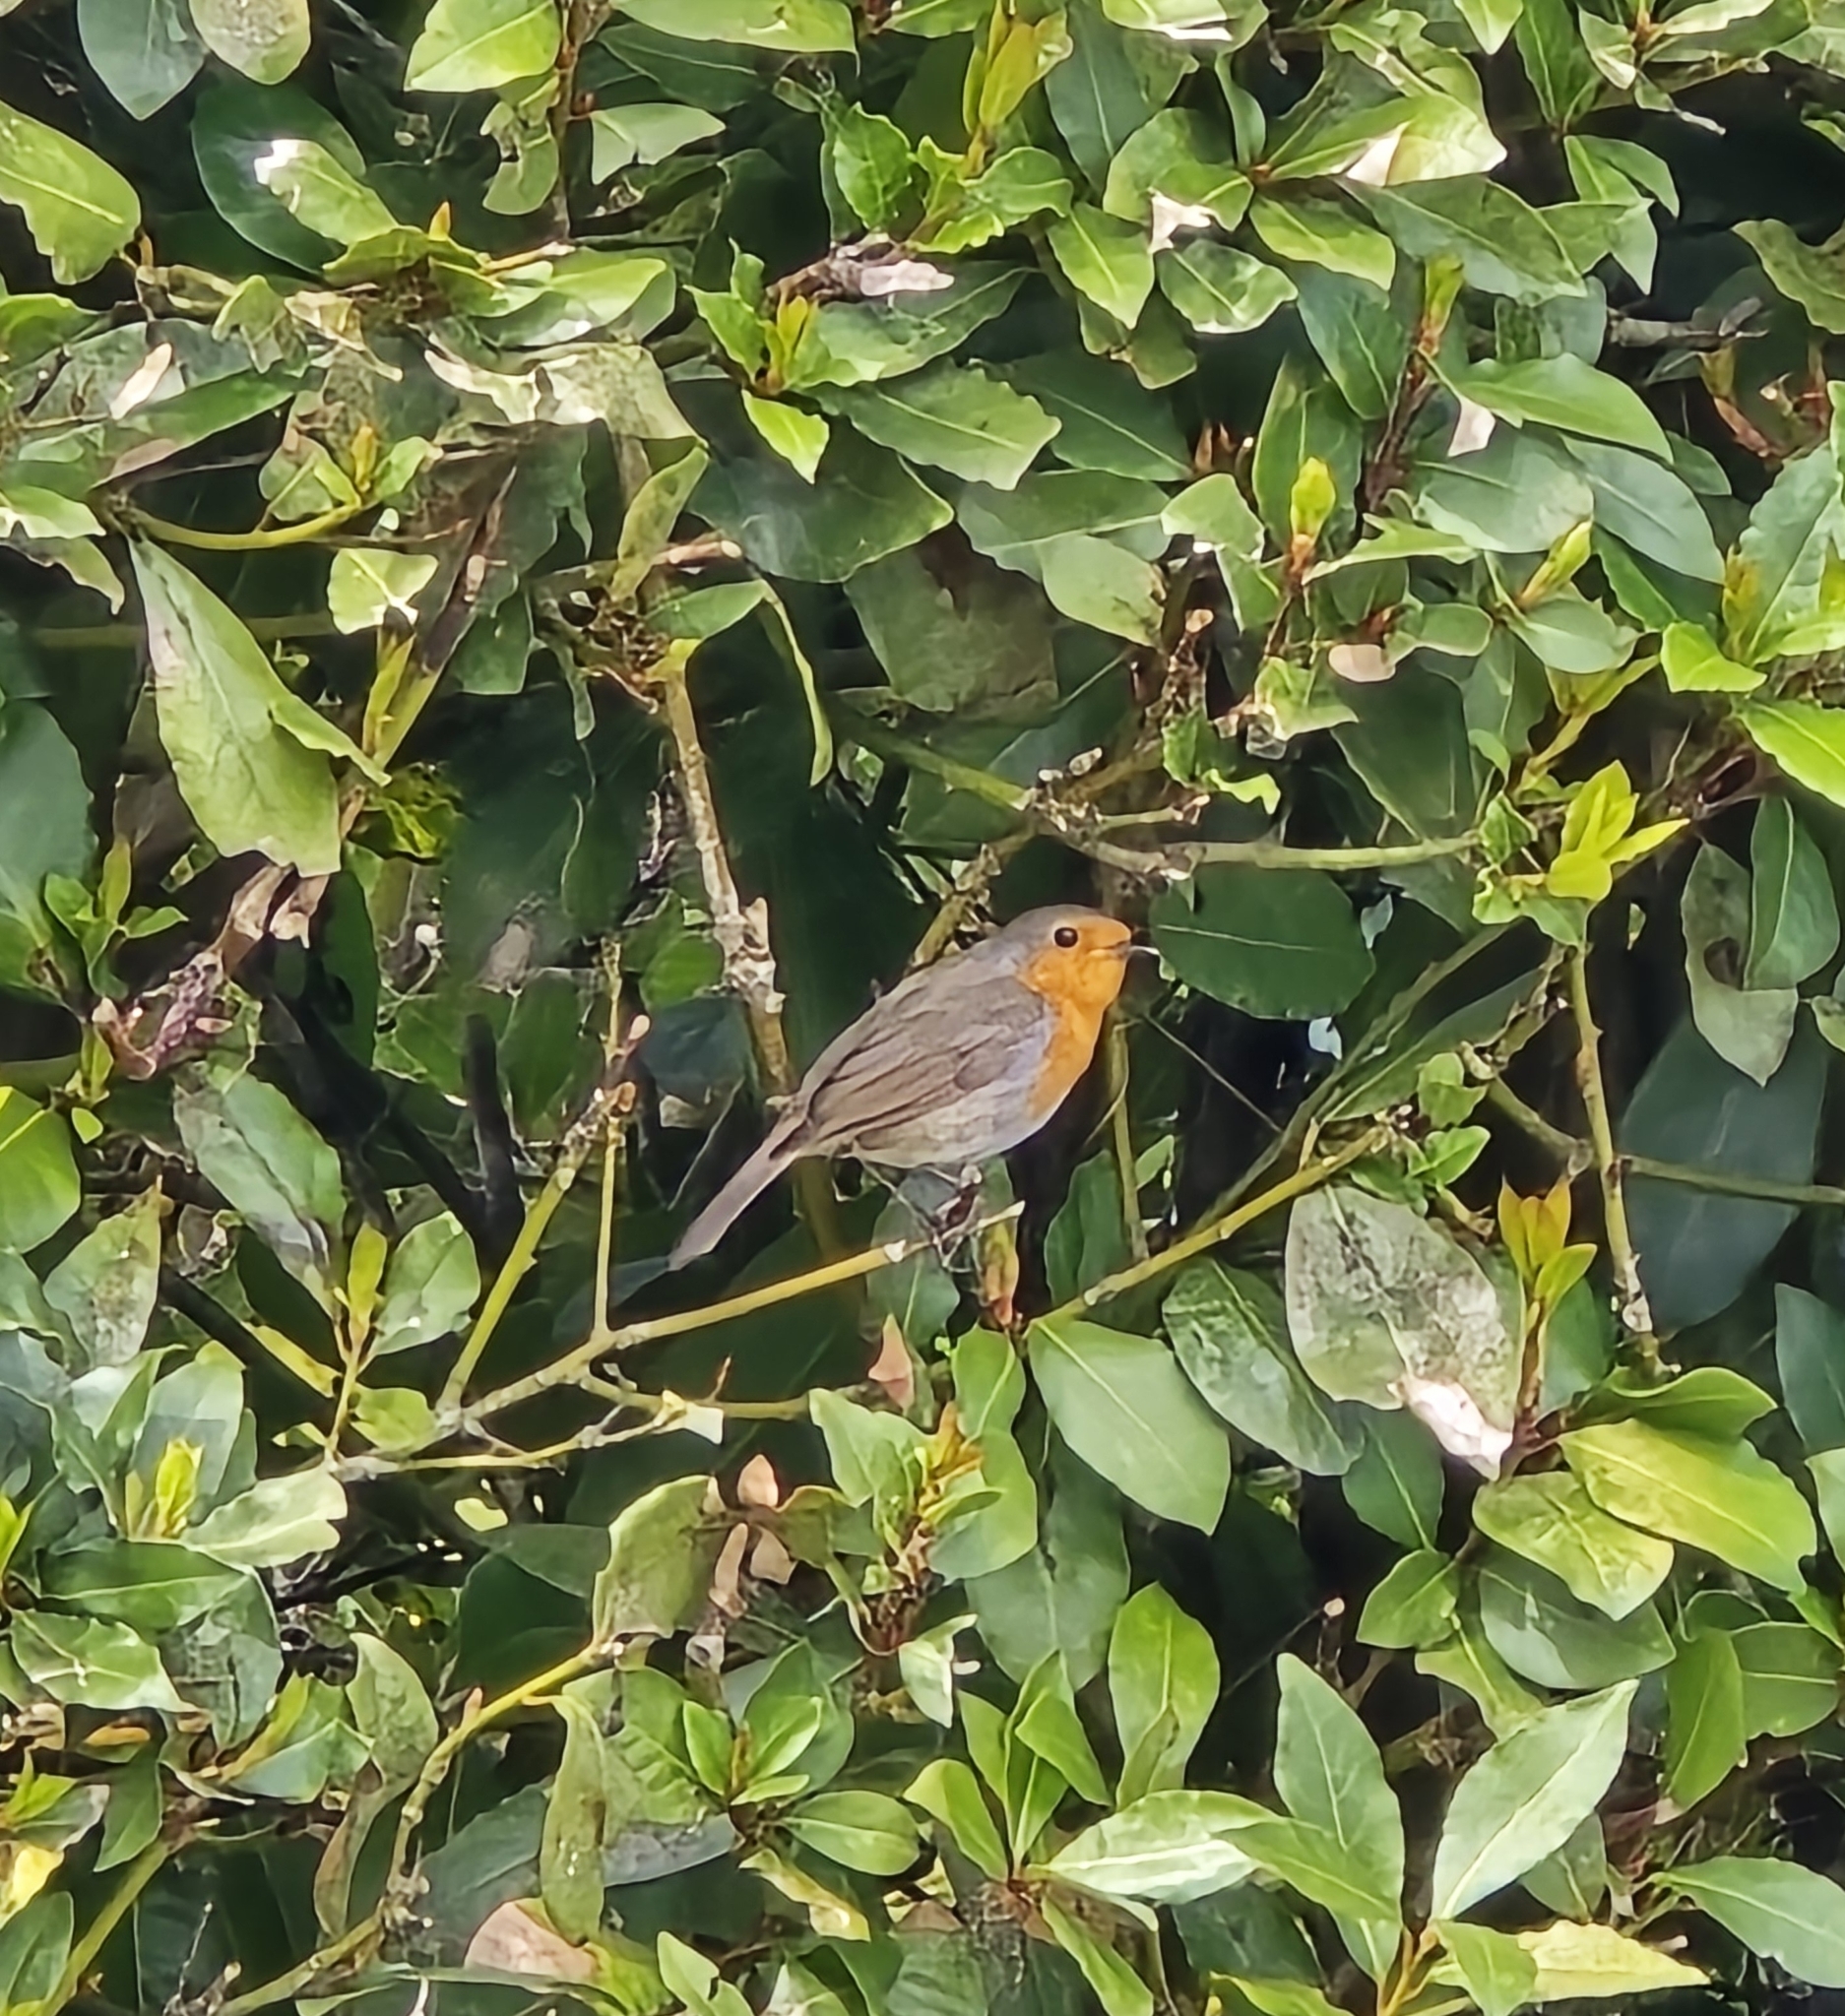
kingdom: Animalia
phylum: Chordata
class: Aves
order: Passeriformes
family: Muscicapidae
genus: Erithacus
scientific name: Erithacus rubecula
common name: European robin
